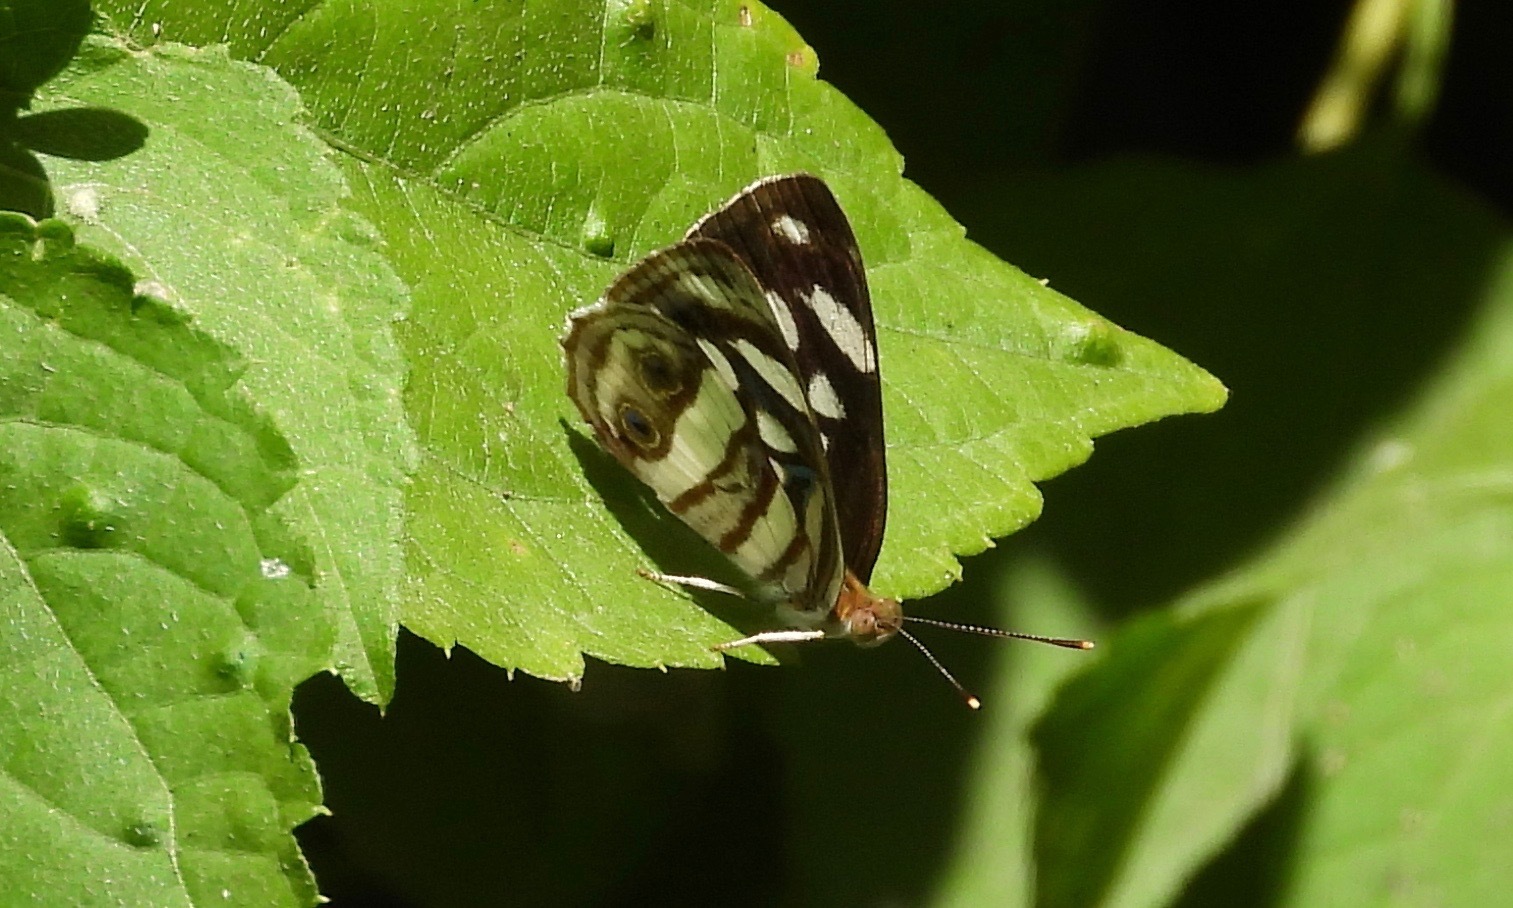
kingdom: Animalia
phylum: Arthropoda
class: Insecta
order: Lepidoptera
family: Nymphalidae
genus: Dynamine
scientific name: Dynamine mylitta
